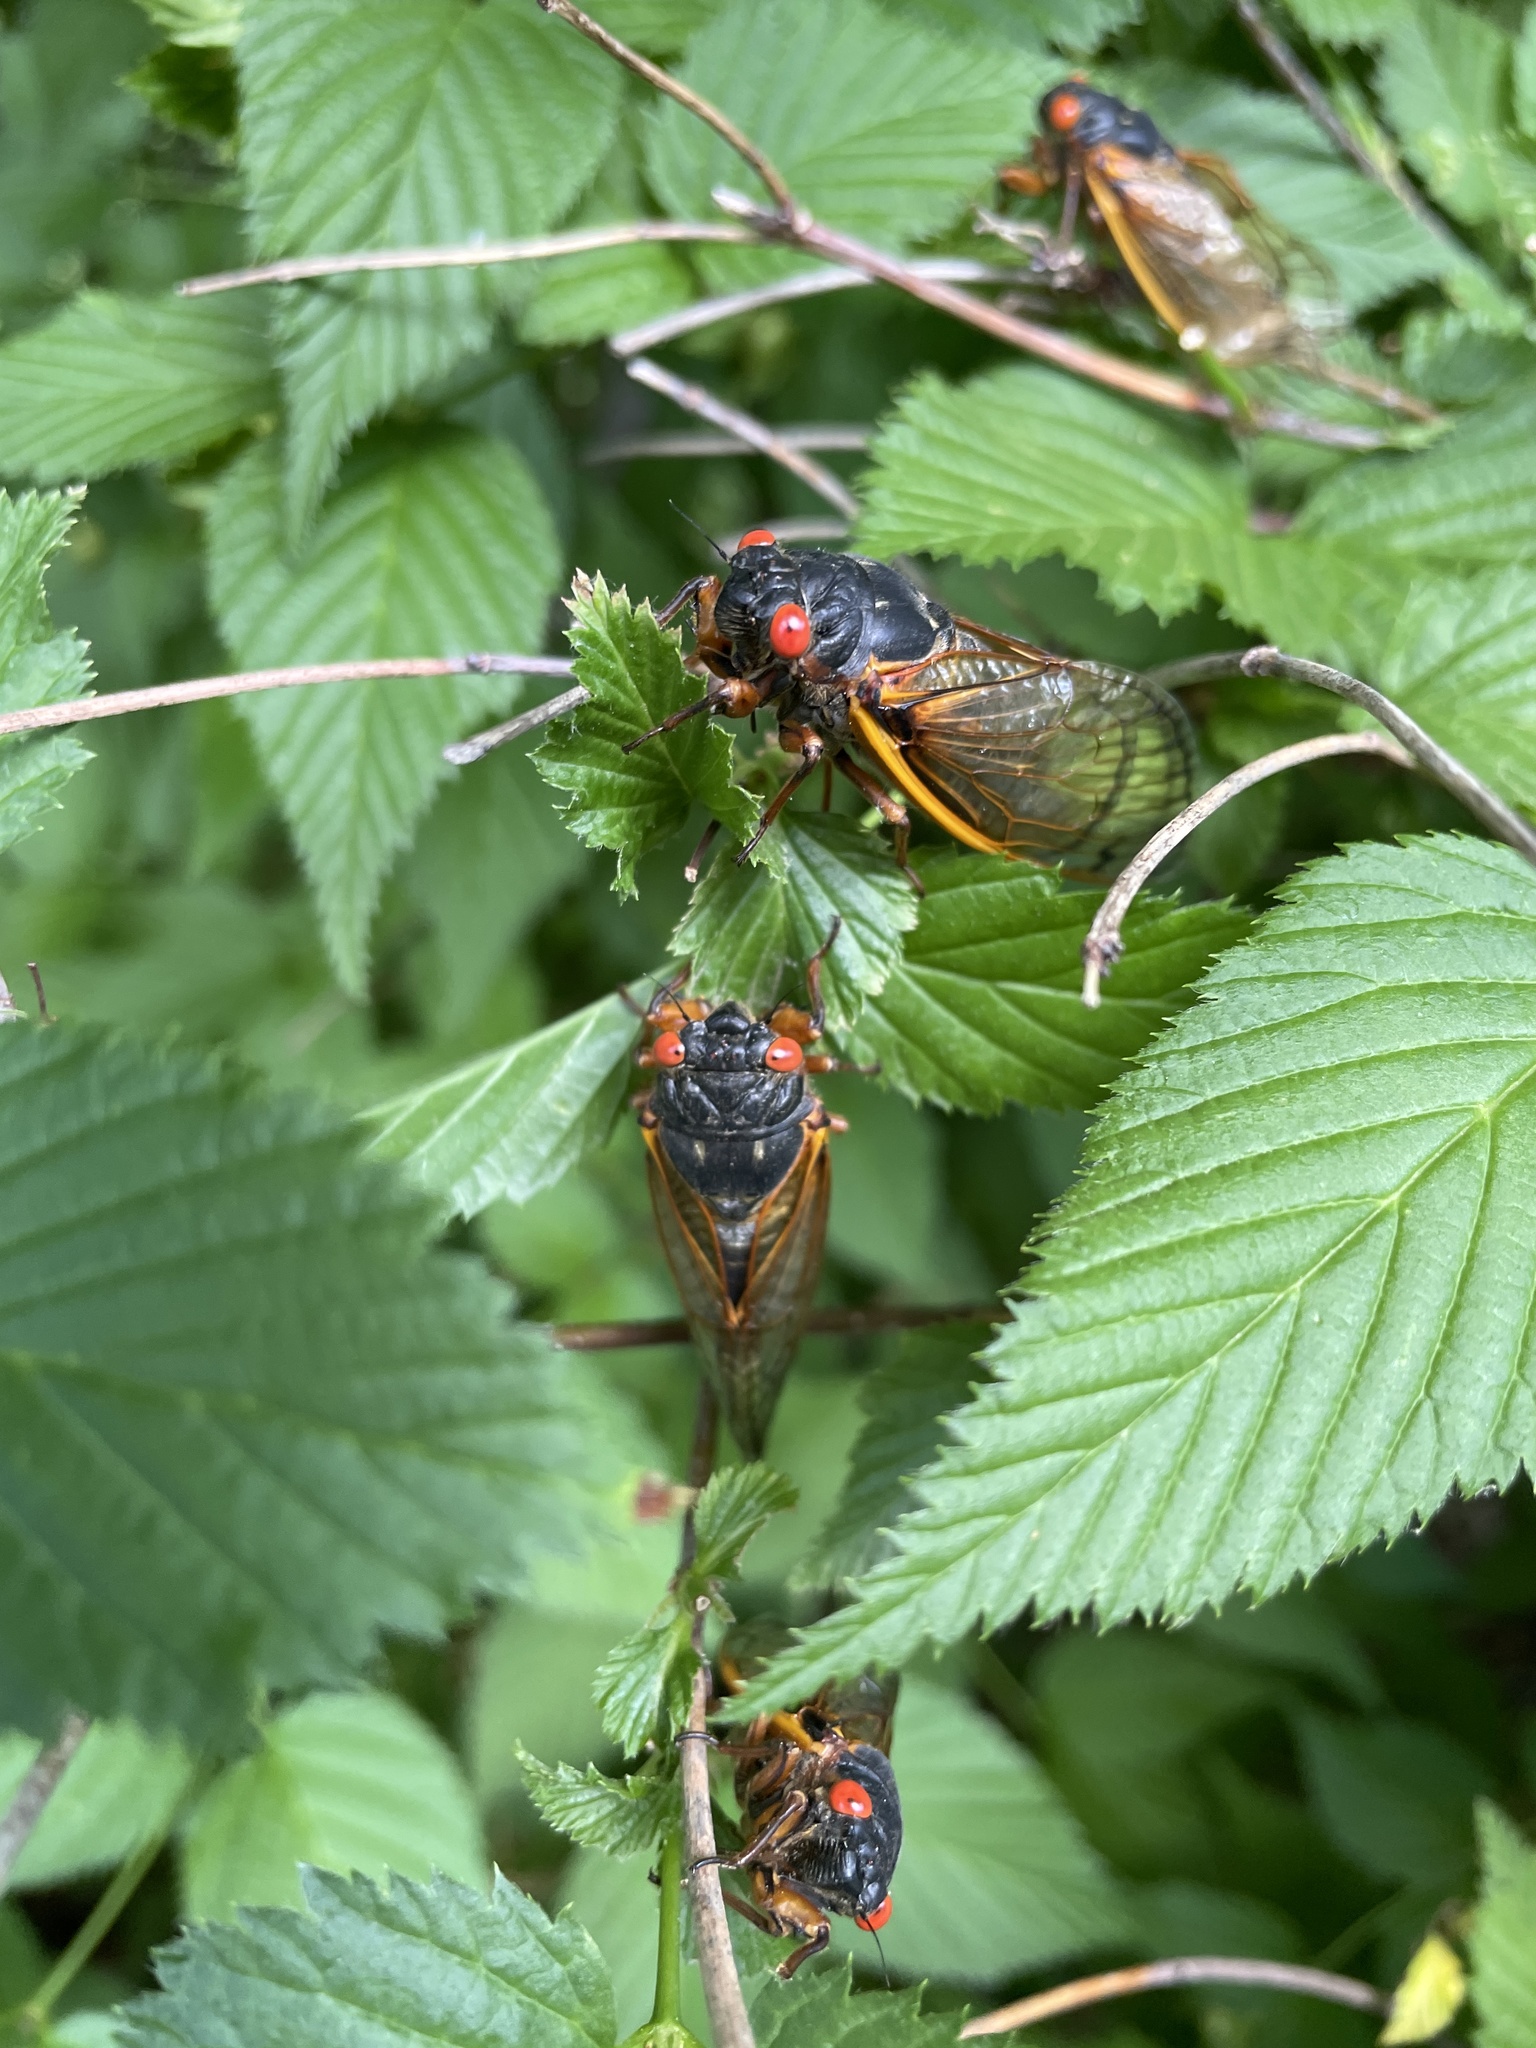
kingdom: Animalia
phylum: Arthropoda
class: Insecta
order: Hemiptera
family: Cicadidae
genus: Magicicada
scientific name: Magicicada septendecim
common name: Periodical cicada
